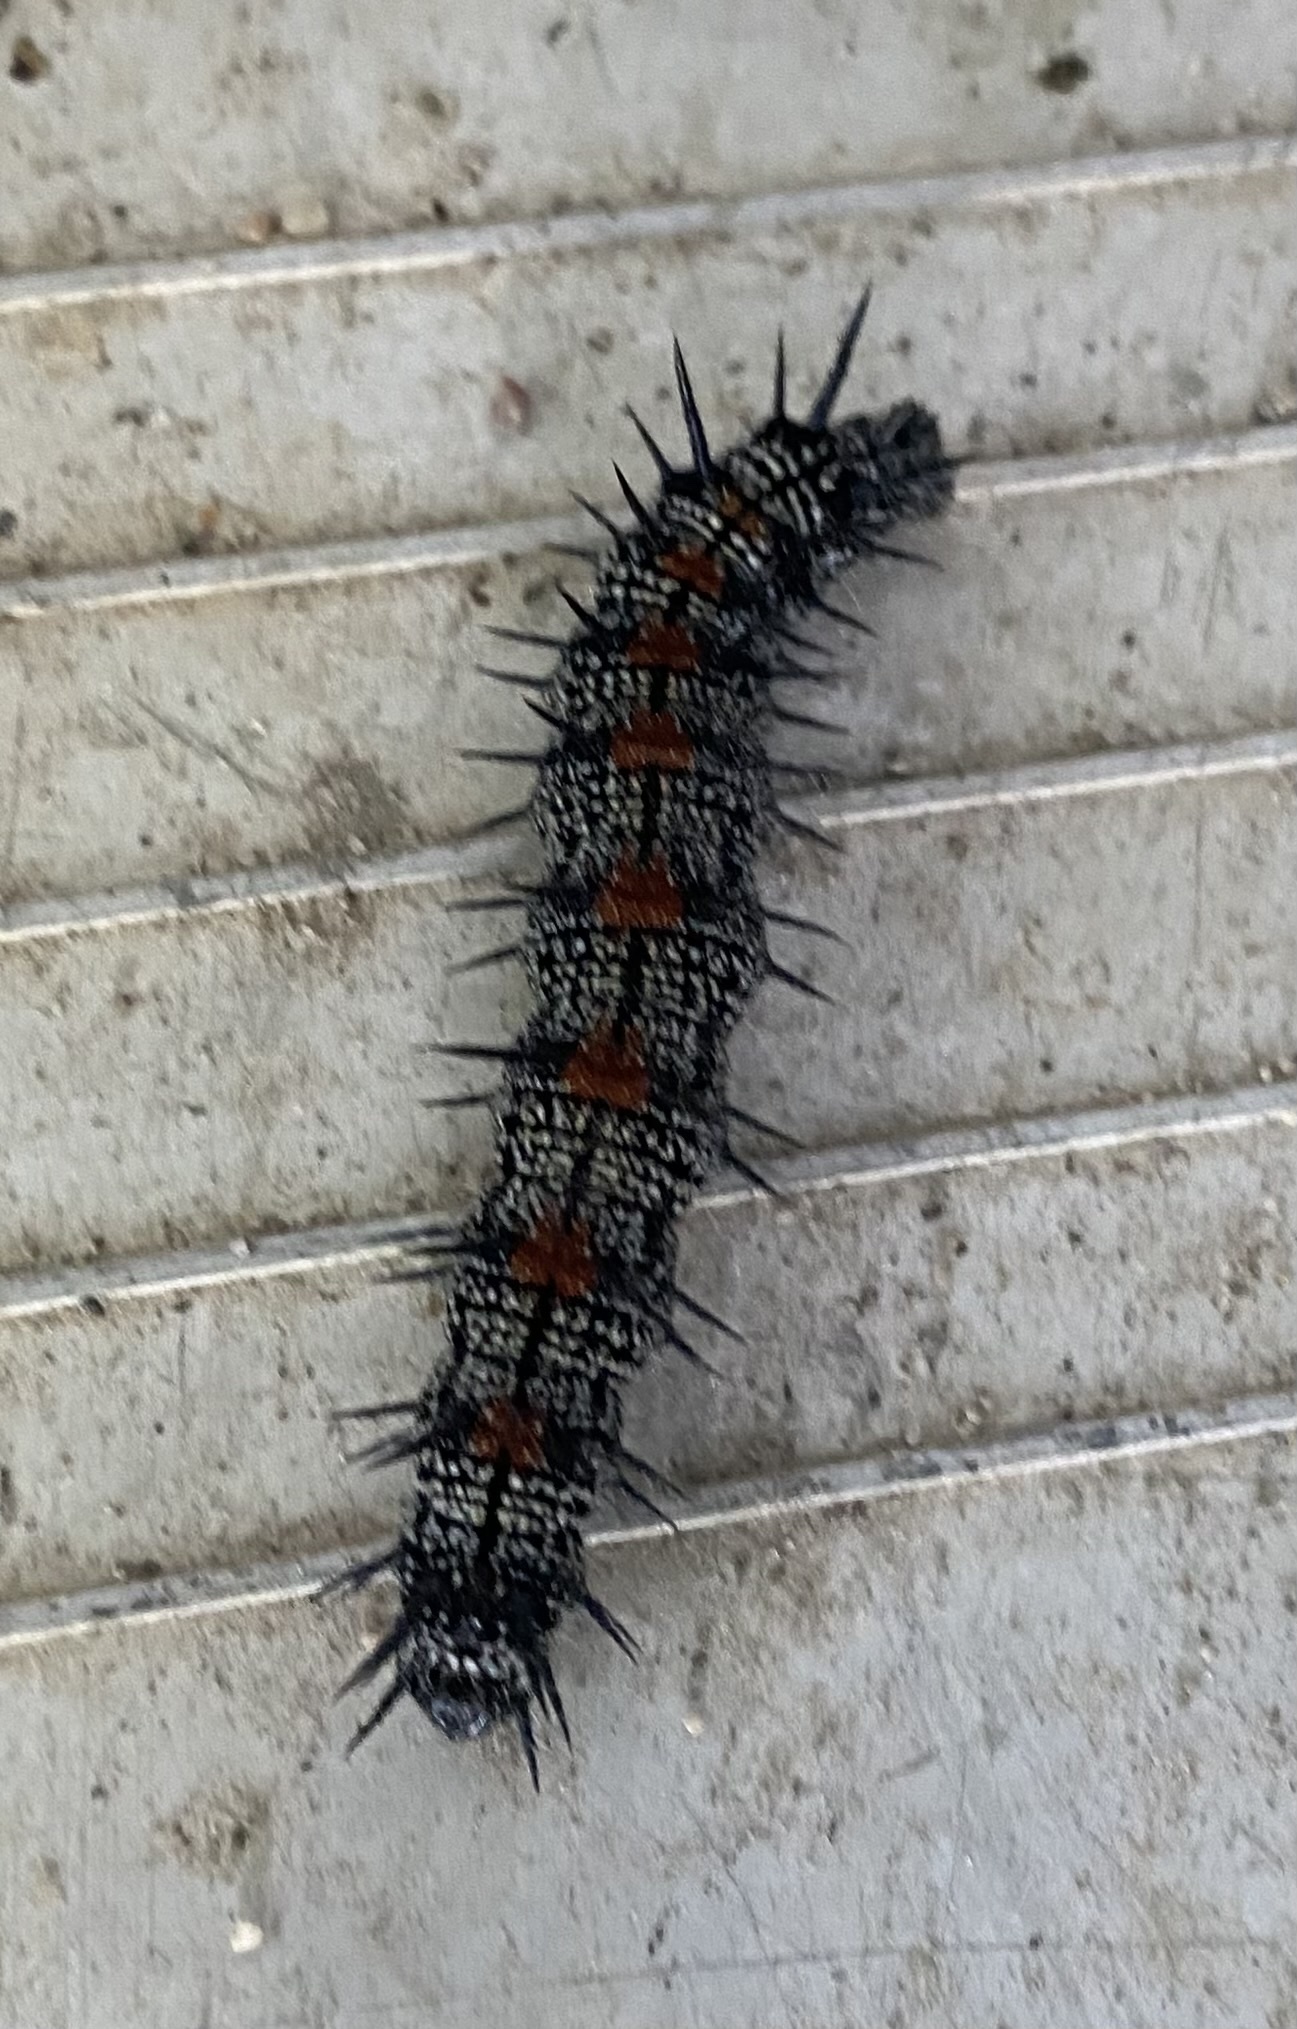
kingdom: Animalia
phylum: Arthropoda
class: Insecta
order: Lepidoptera
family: Nymphalidae
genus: Nymphalis
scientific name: Nymphalis antiopa
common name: Camberwell beauty
